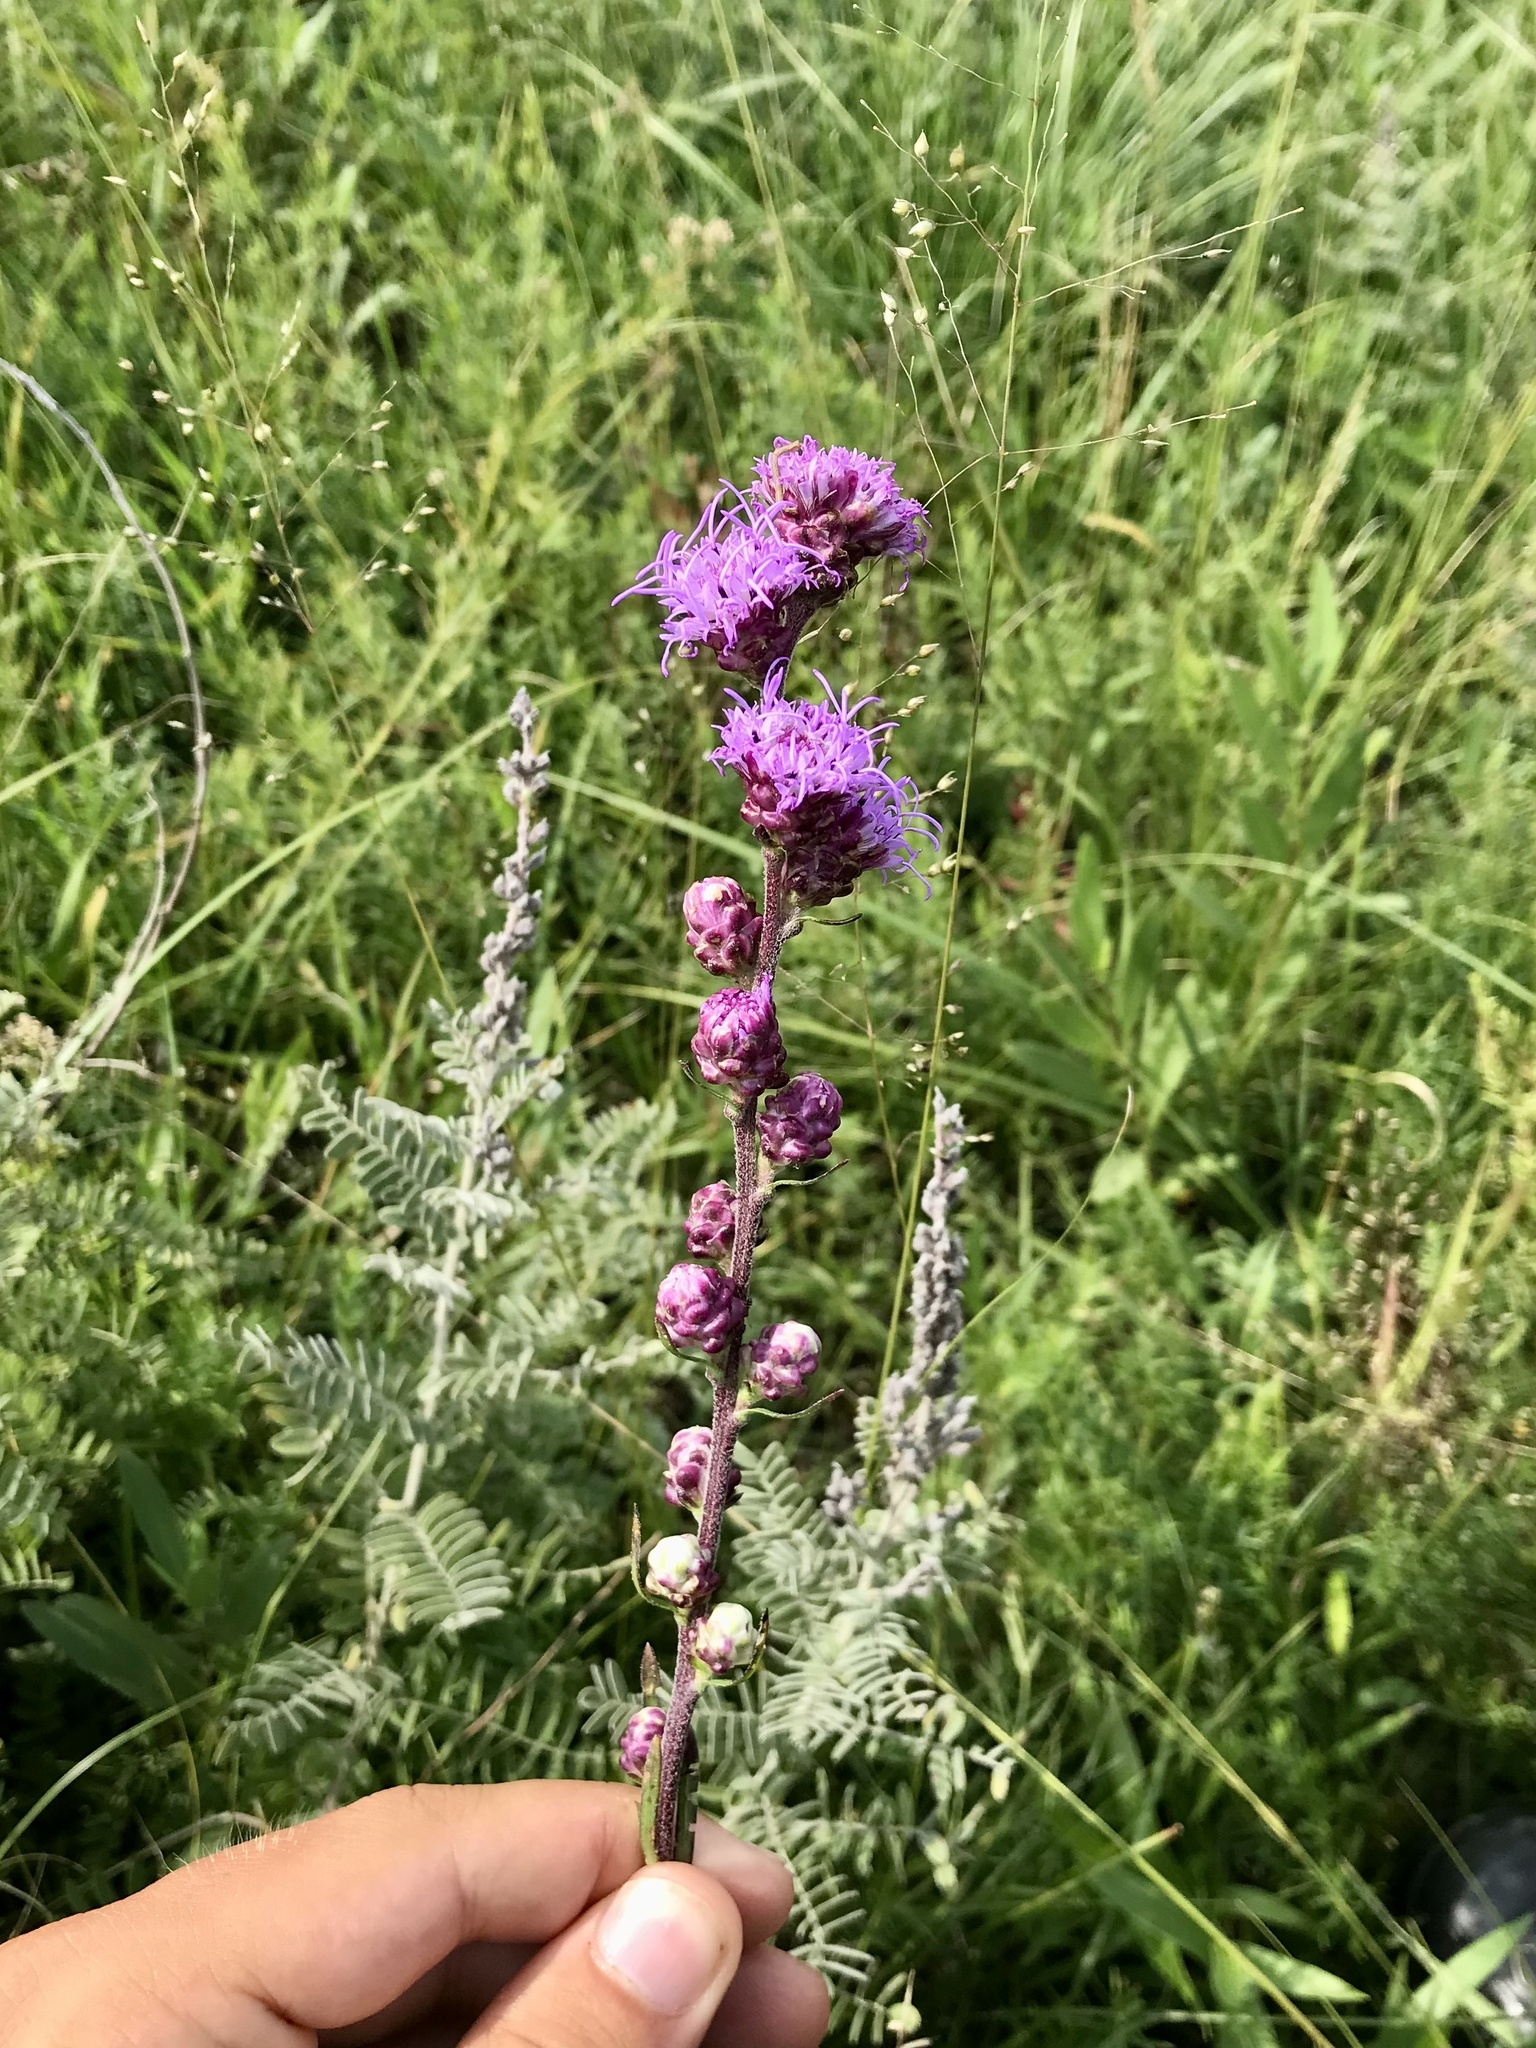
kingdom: Plantae
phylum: Tracheophyta
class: Magnoliopsida
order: Asterales
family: Asteraceae
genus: Liatris
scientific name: Liatris aspera
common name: Lacerate blazing-star
